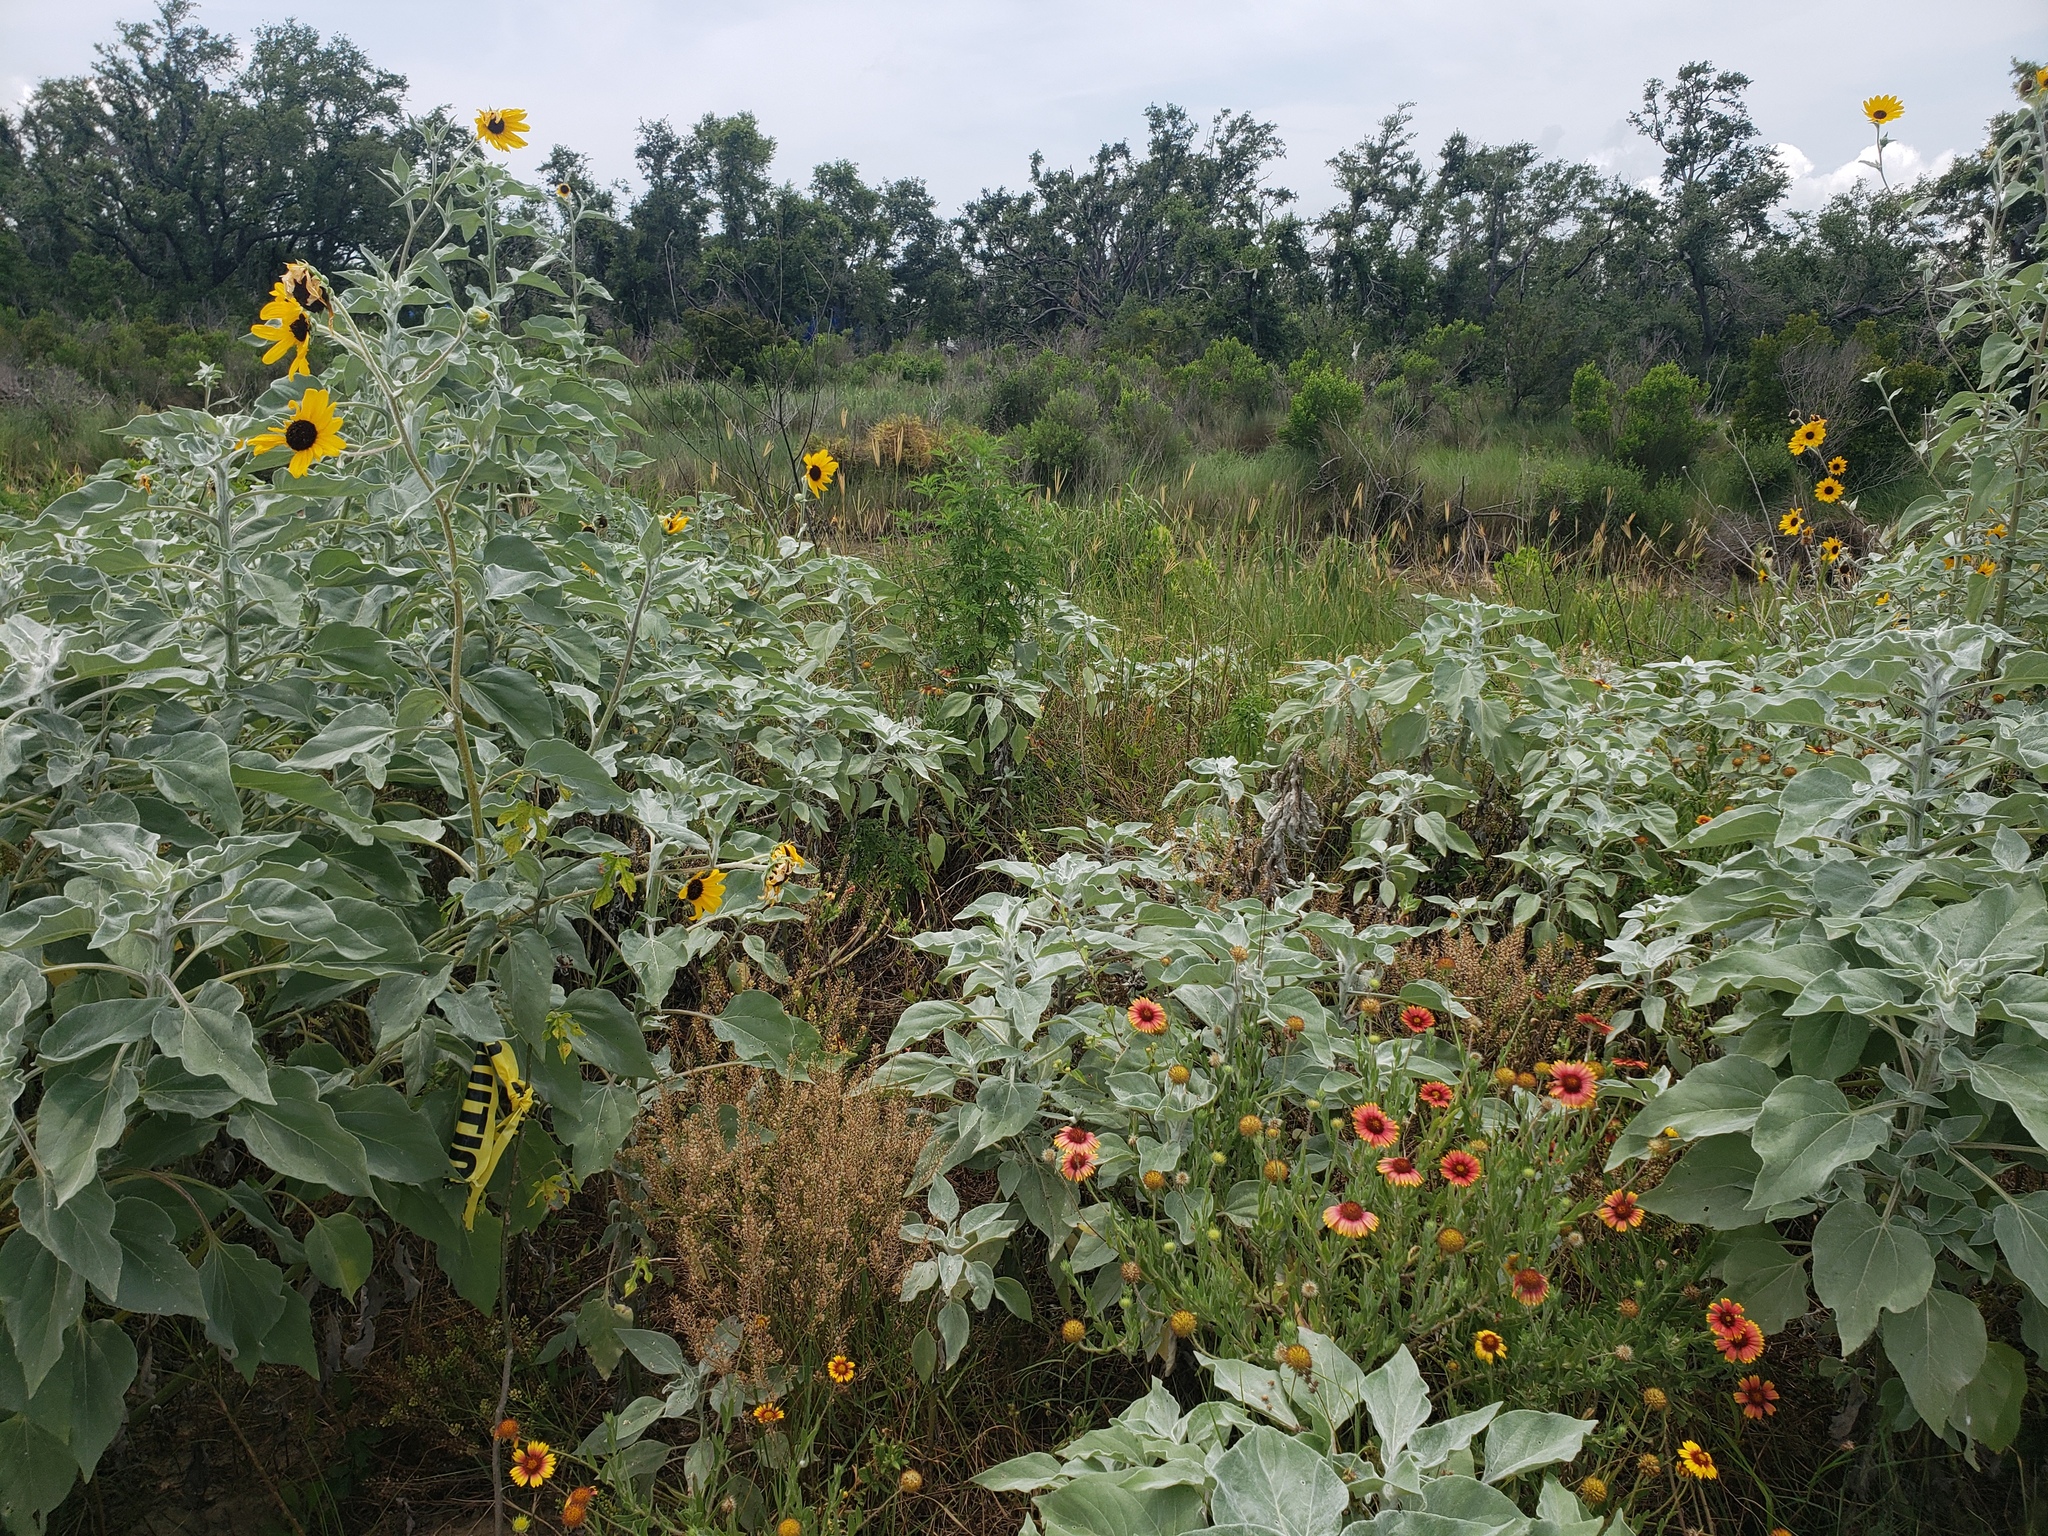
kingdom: Plantae
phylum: Tracheophyta
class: Magnoliopsida
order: Asterales
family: Asteraceae
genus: Helianthus
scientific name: Helianthus argophyllus
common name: Silverleaf sunflower
